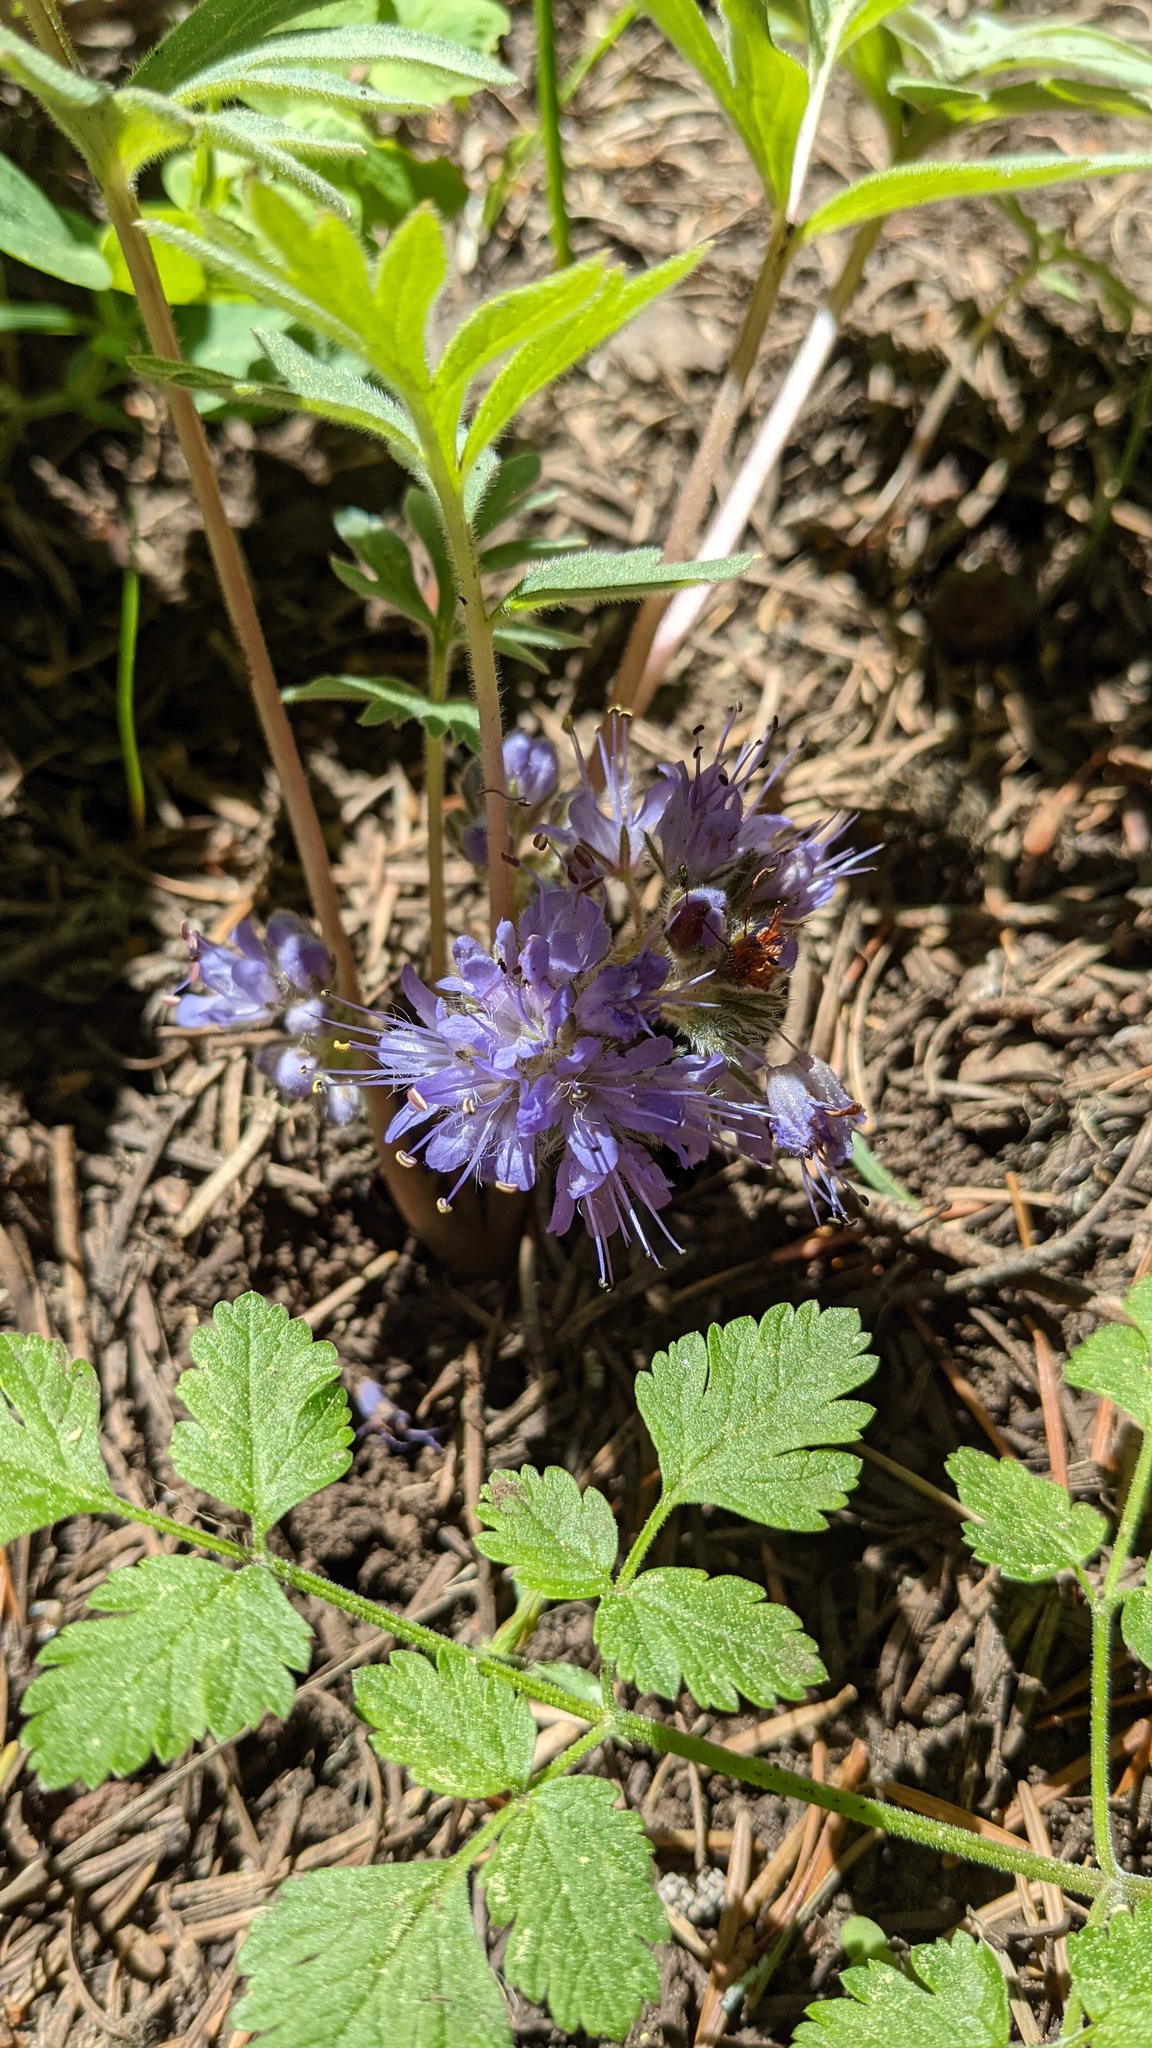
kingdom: Plantae
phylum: Tracheophyta
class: Magnoliopsida
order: Boraginales
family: Hydrophyllaceae
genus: Hydrophyllum
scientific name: Hydrophyllum alpestre
